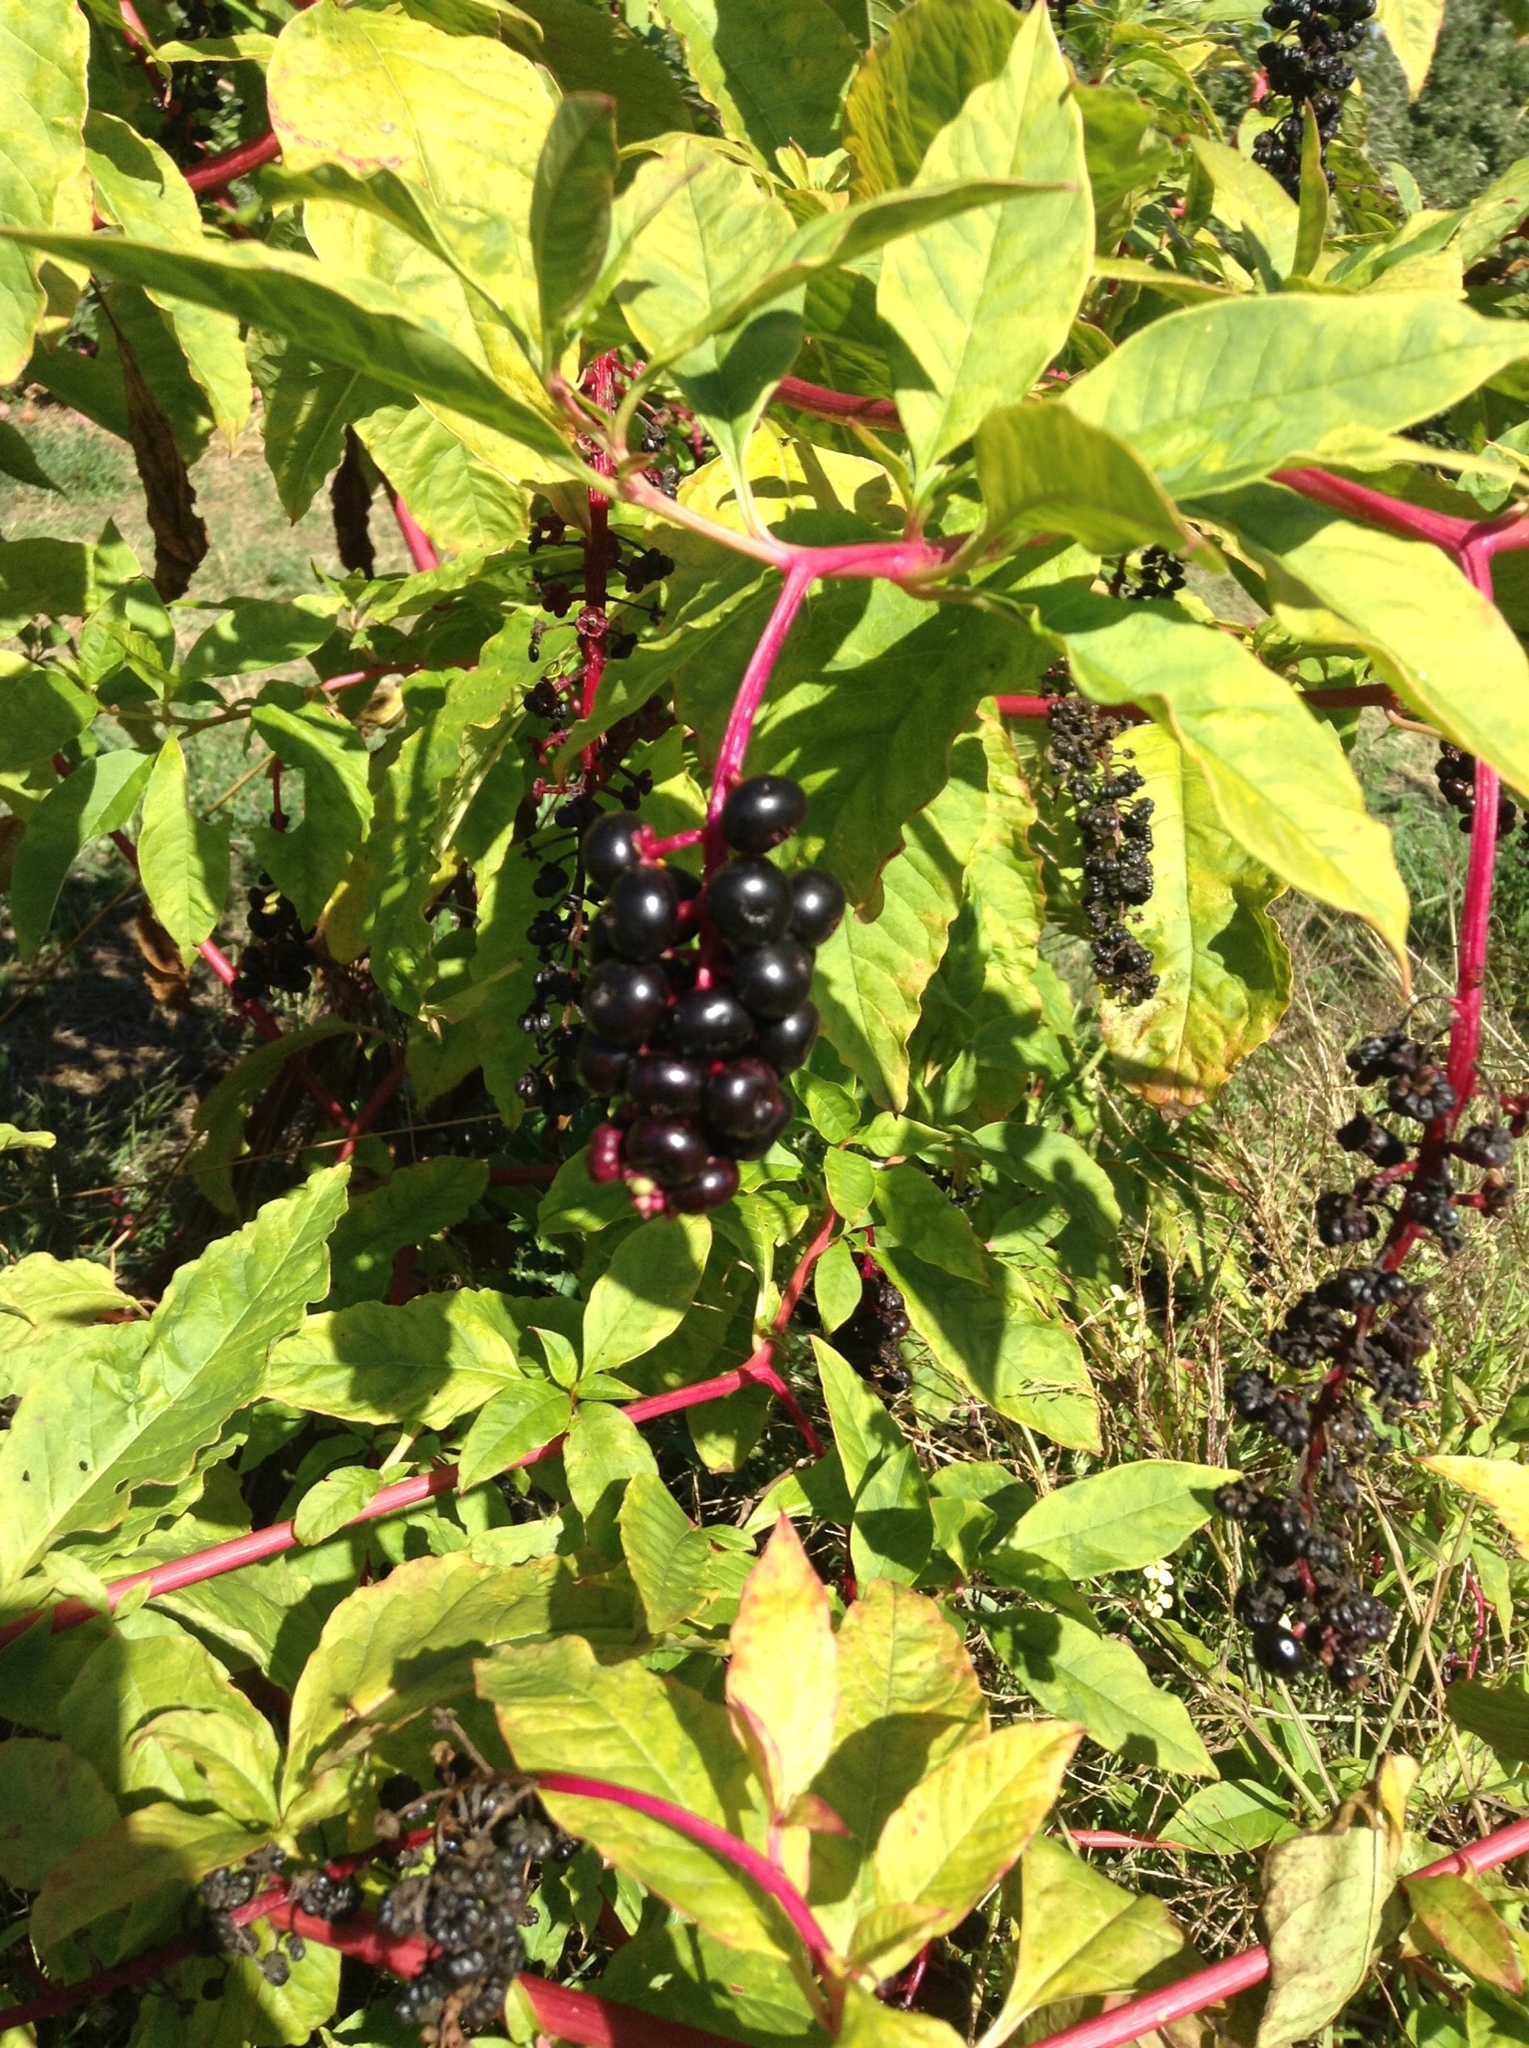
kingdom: Plantae
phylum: Tracheophyta
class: Magnoliopsida
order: Caryophyllales
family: Phytolaccaceae
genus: Phytolacca
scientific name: Phytolacca americana
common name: American pokeweed
